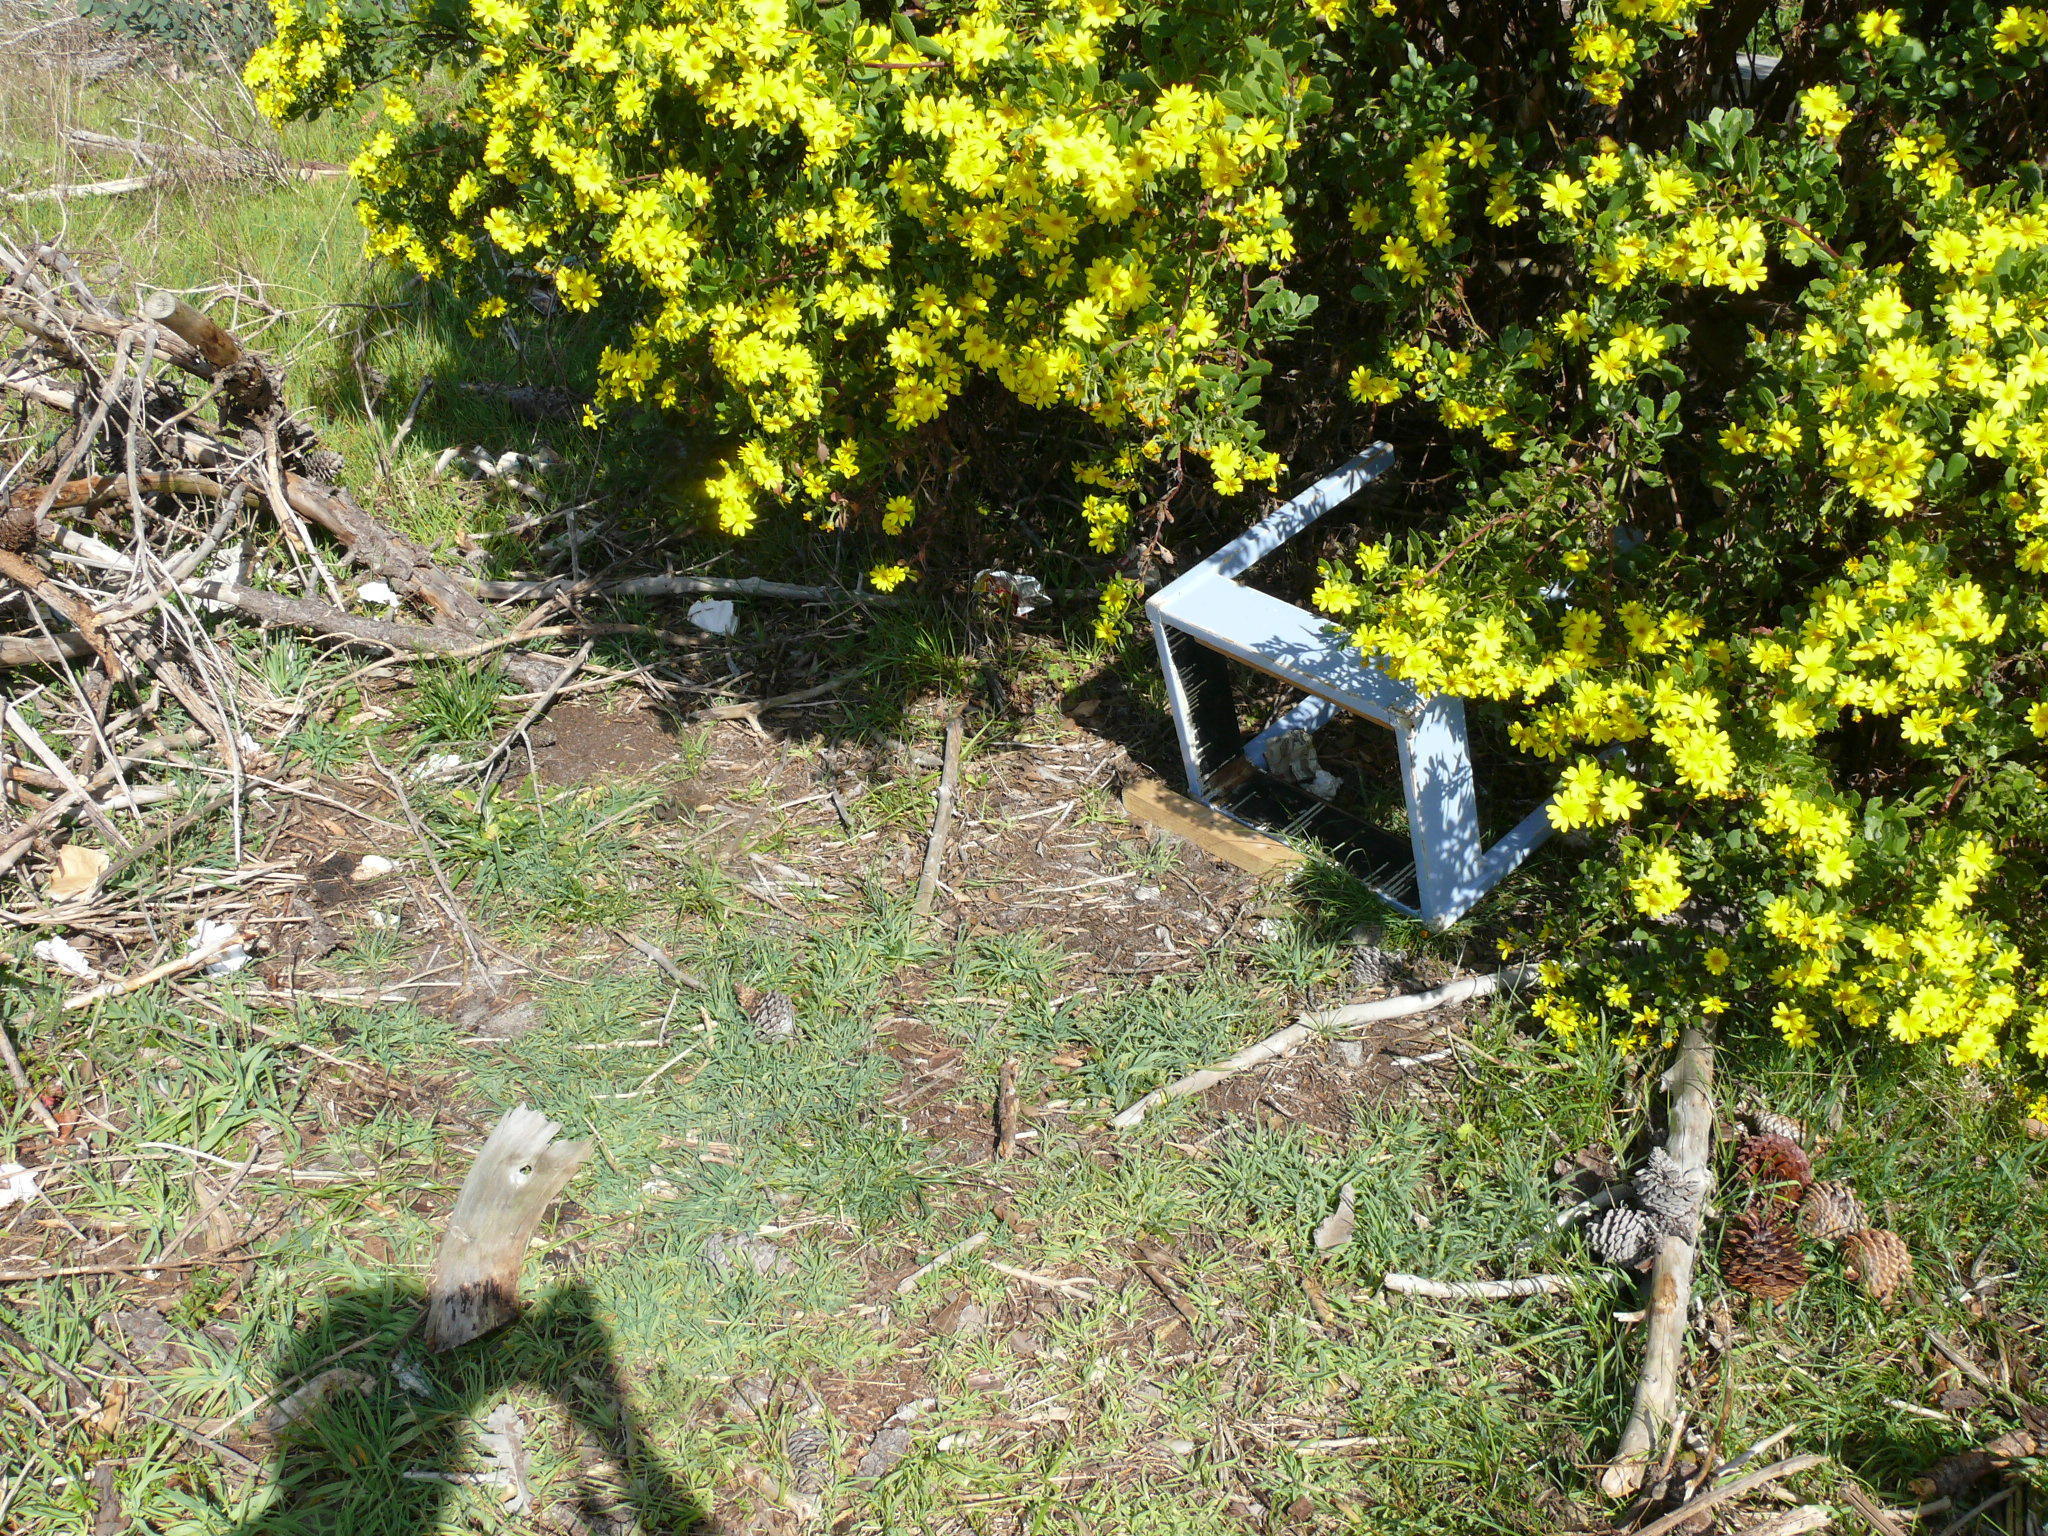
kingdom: Plantae
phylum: Tracheophyta
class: Magnoliopsida
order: Asterales
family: Asteraceae
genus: Osteospermum
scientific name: Osteospermum moniliferum
